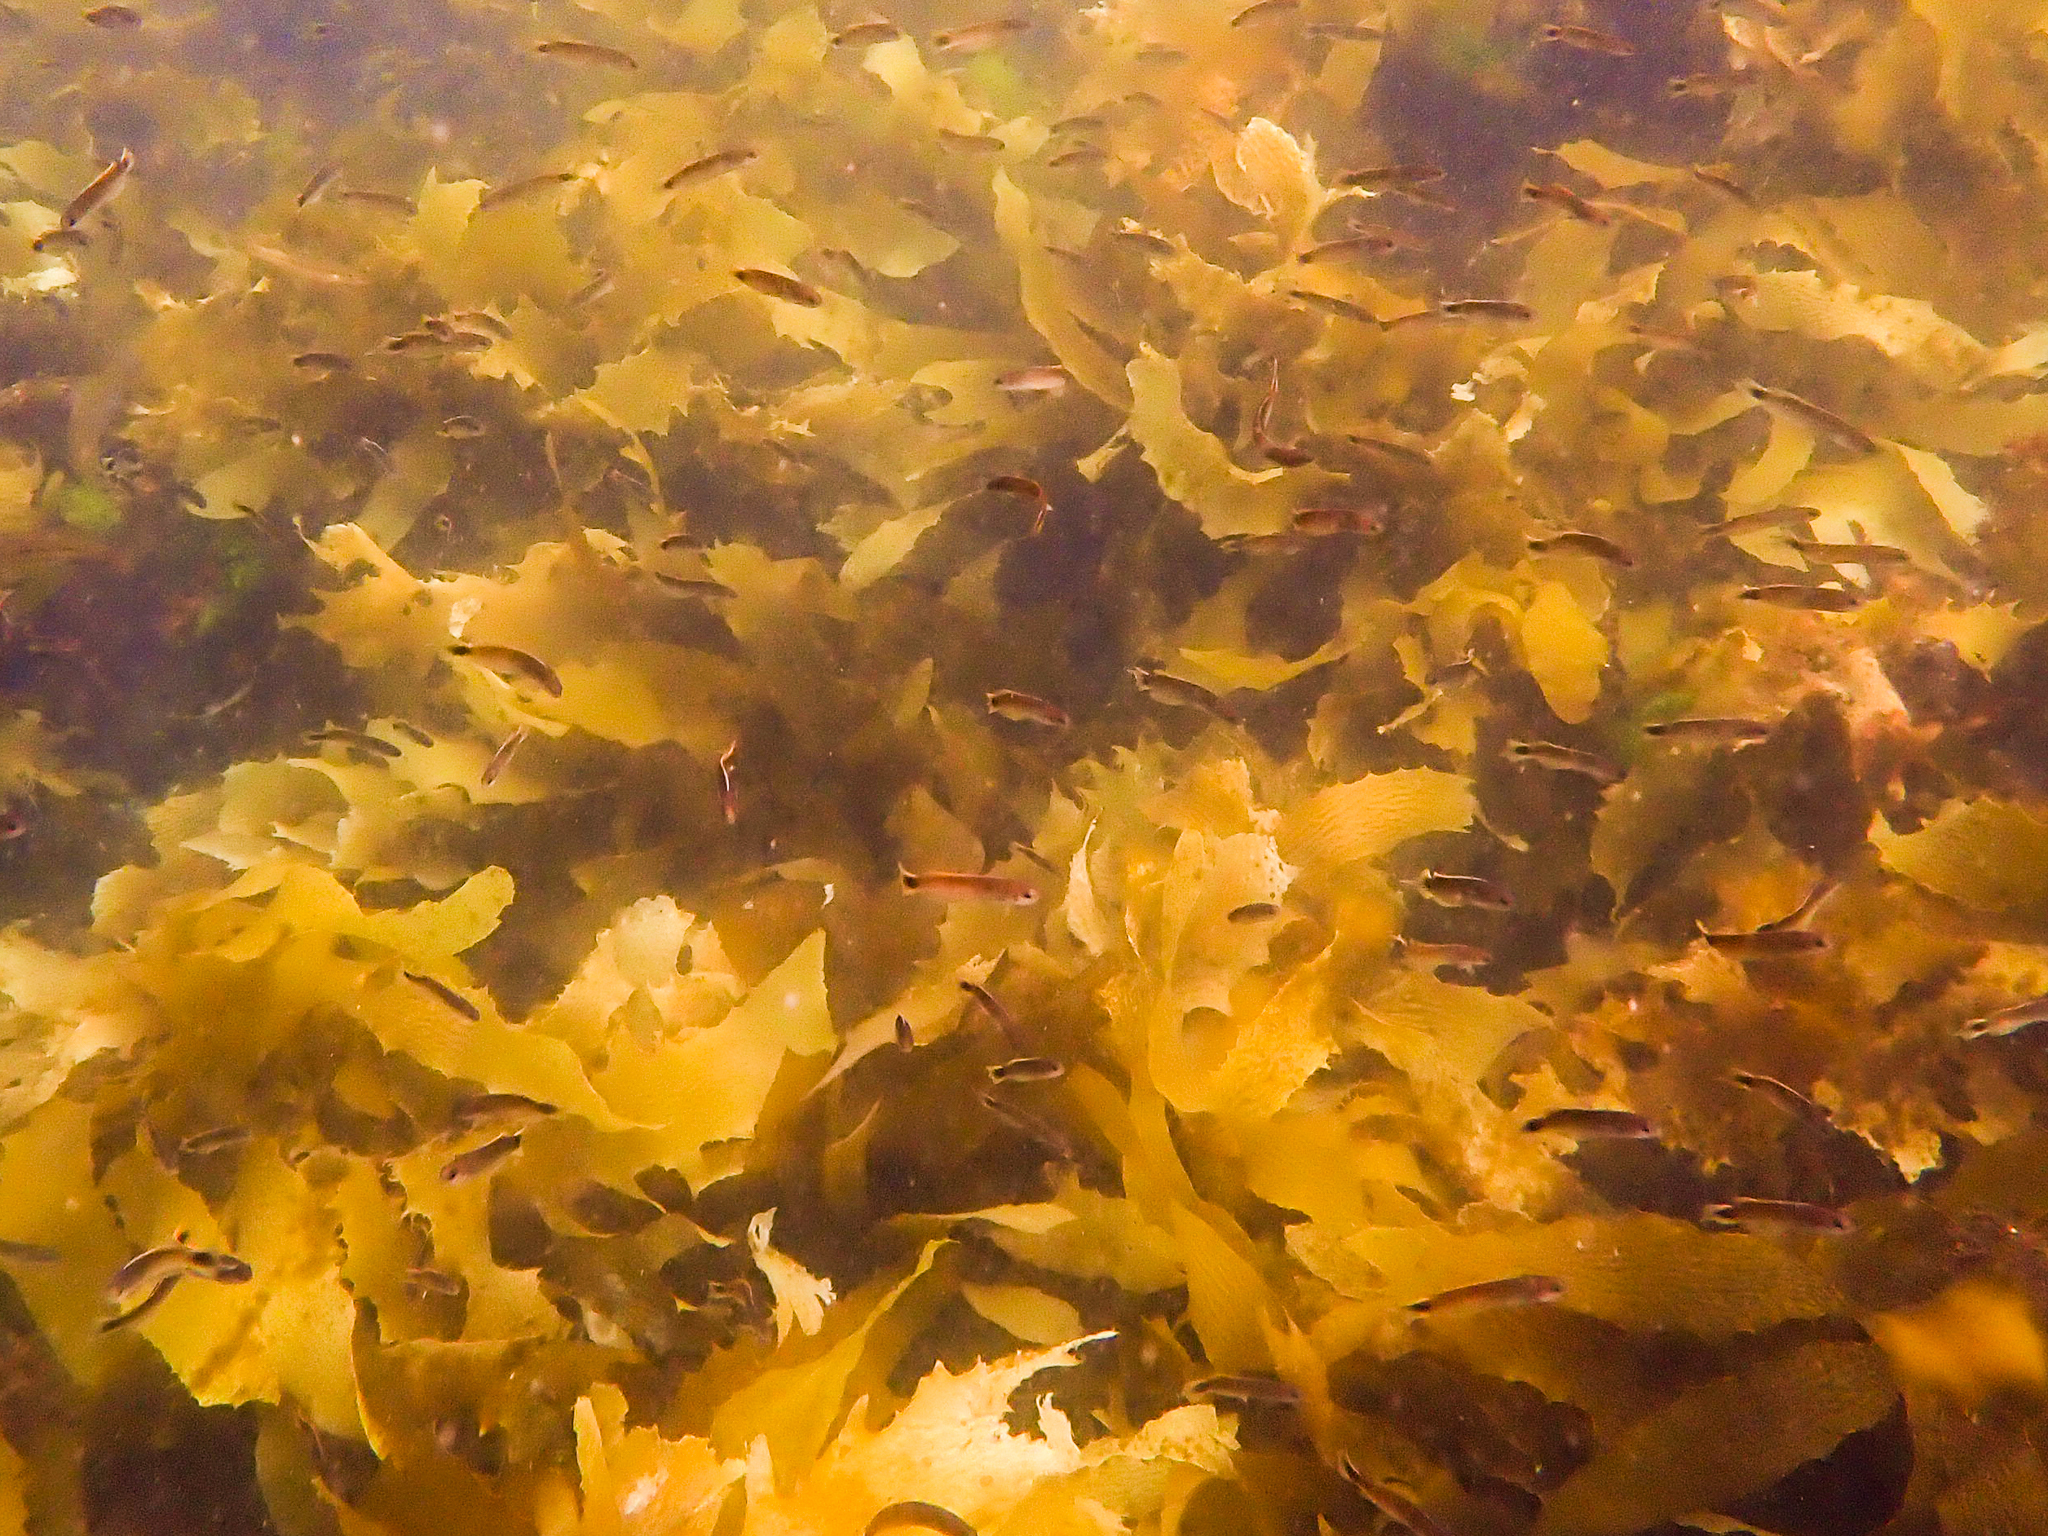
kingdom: Animalia
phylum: Chordata
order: Perciformes
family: Plesiopidae
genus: Trachinops
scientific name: Trachinops caudimaculatus
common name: Blotched-tailed trachinops
